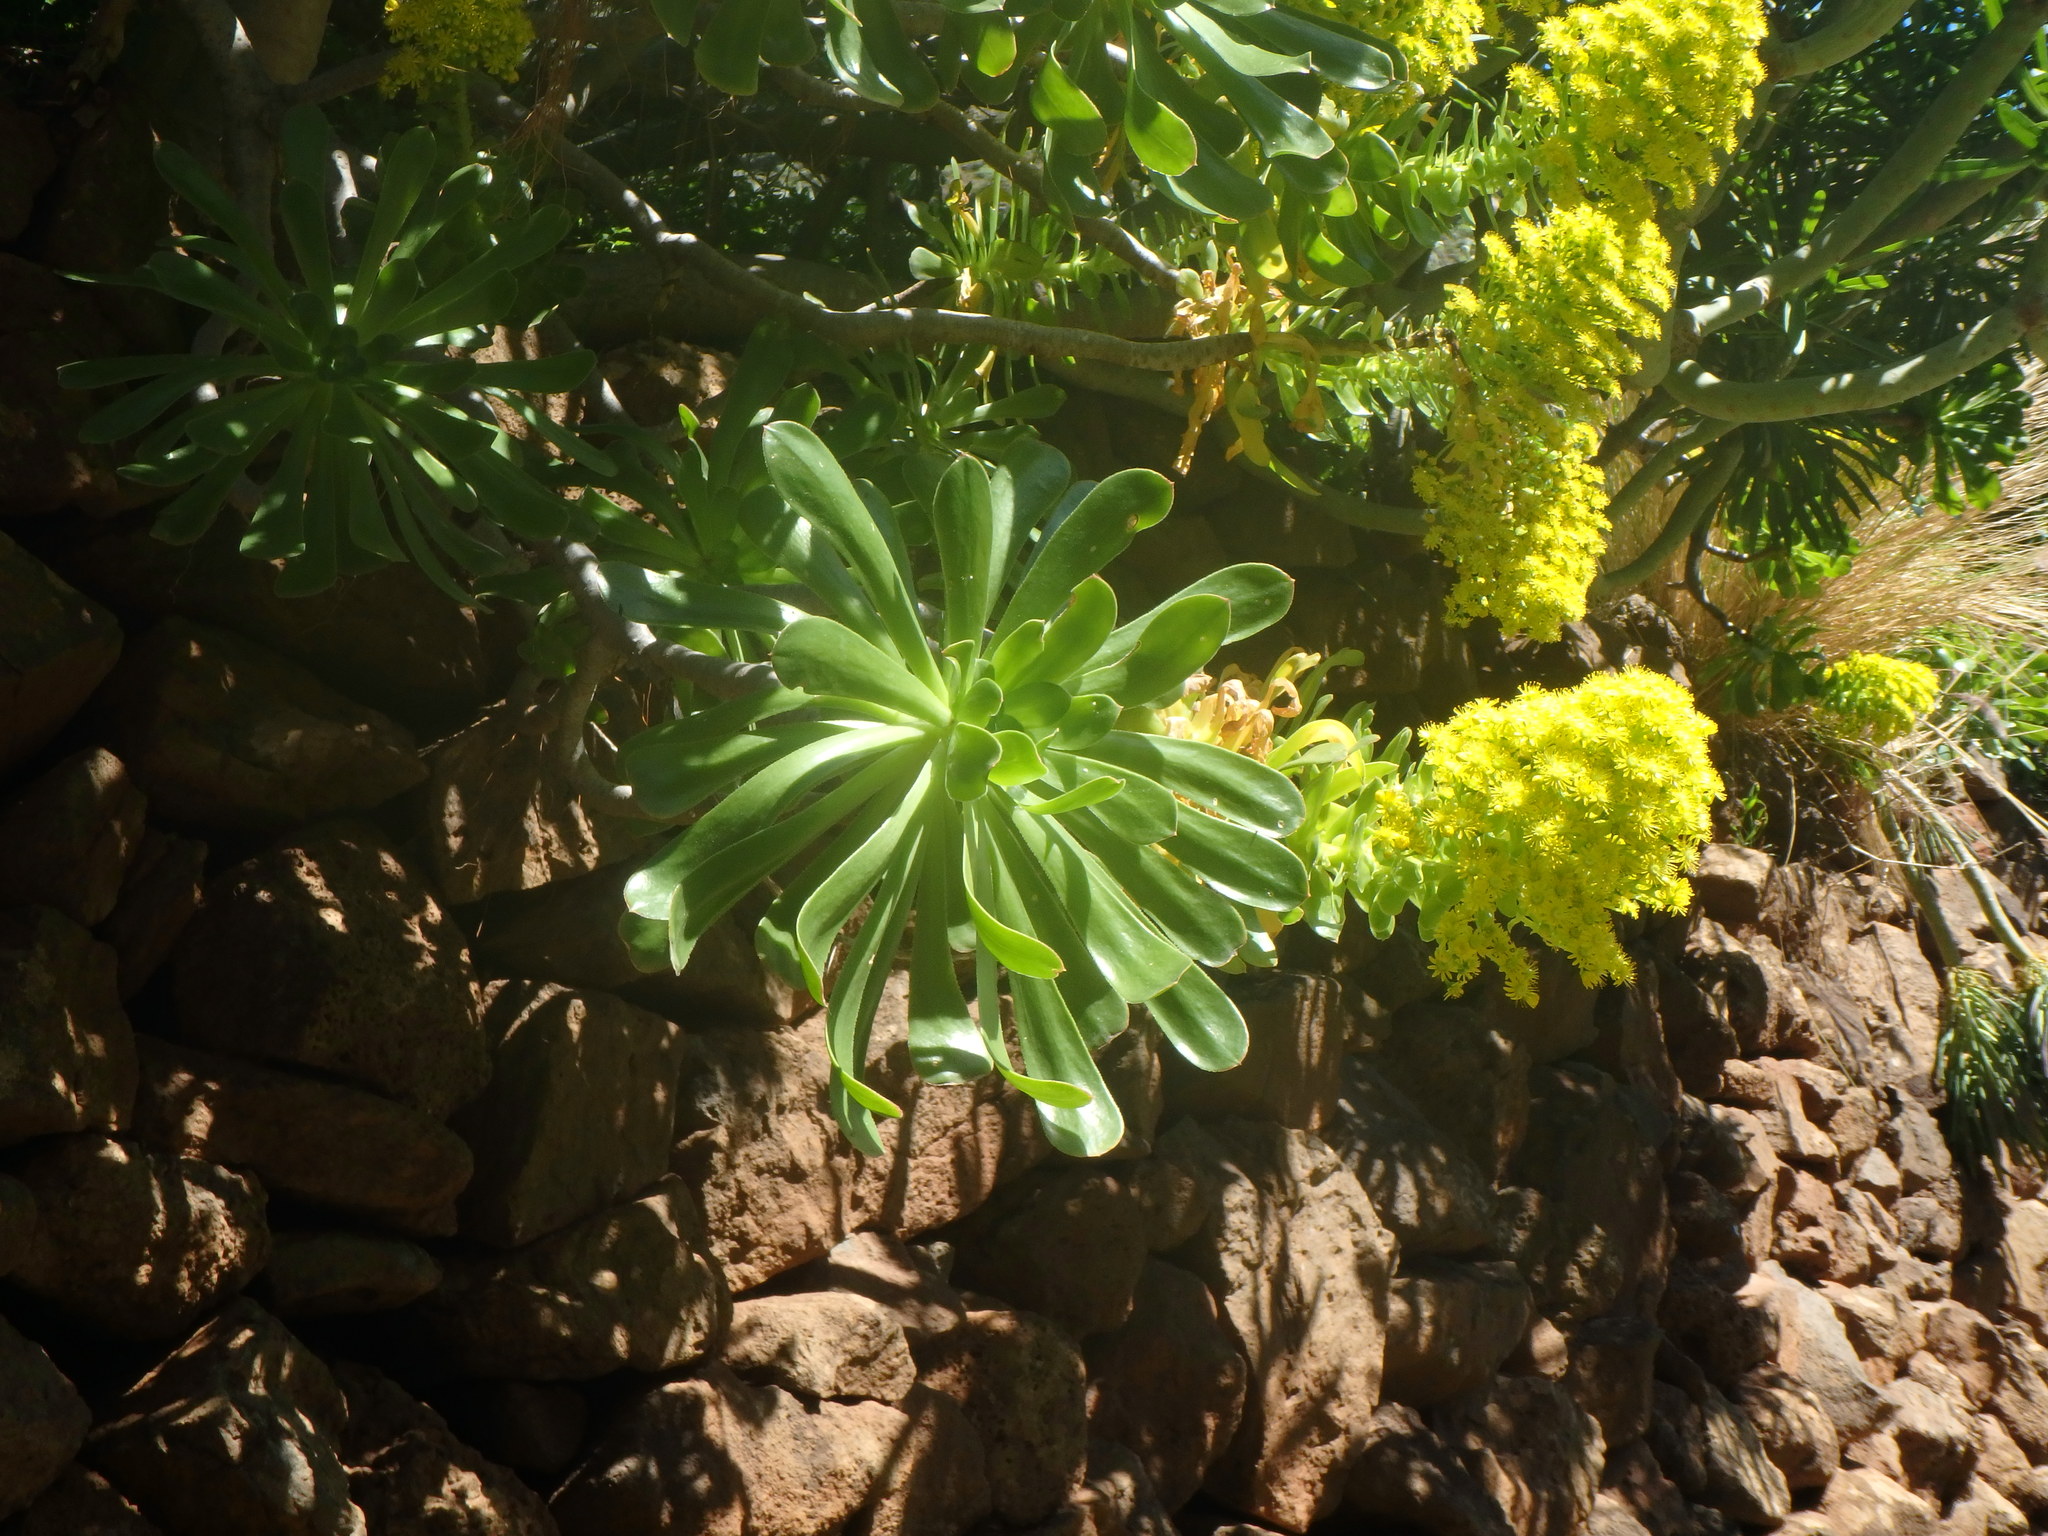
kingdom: Plantae
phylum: Tracheophyta
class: Magnoliopsida
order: Saxifragales
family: Crassulaceae
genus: Aeonium
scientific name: Aeonium arboreum
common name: Tree aeonium
